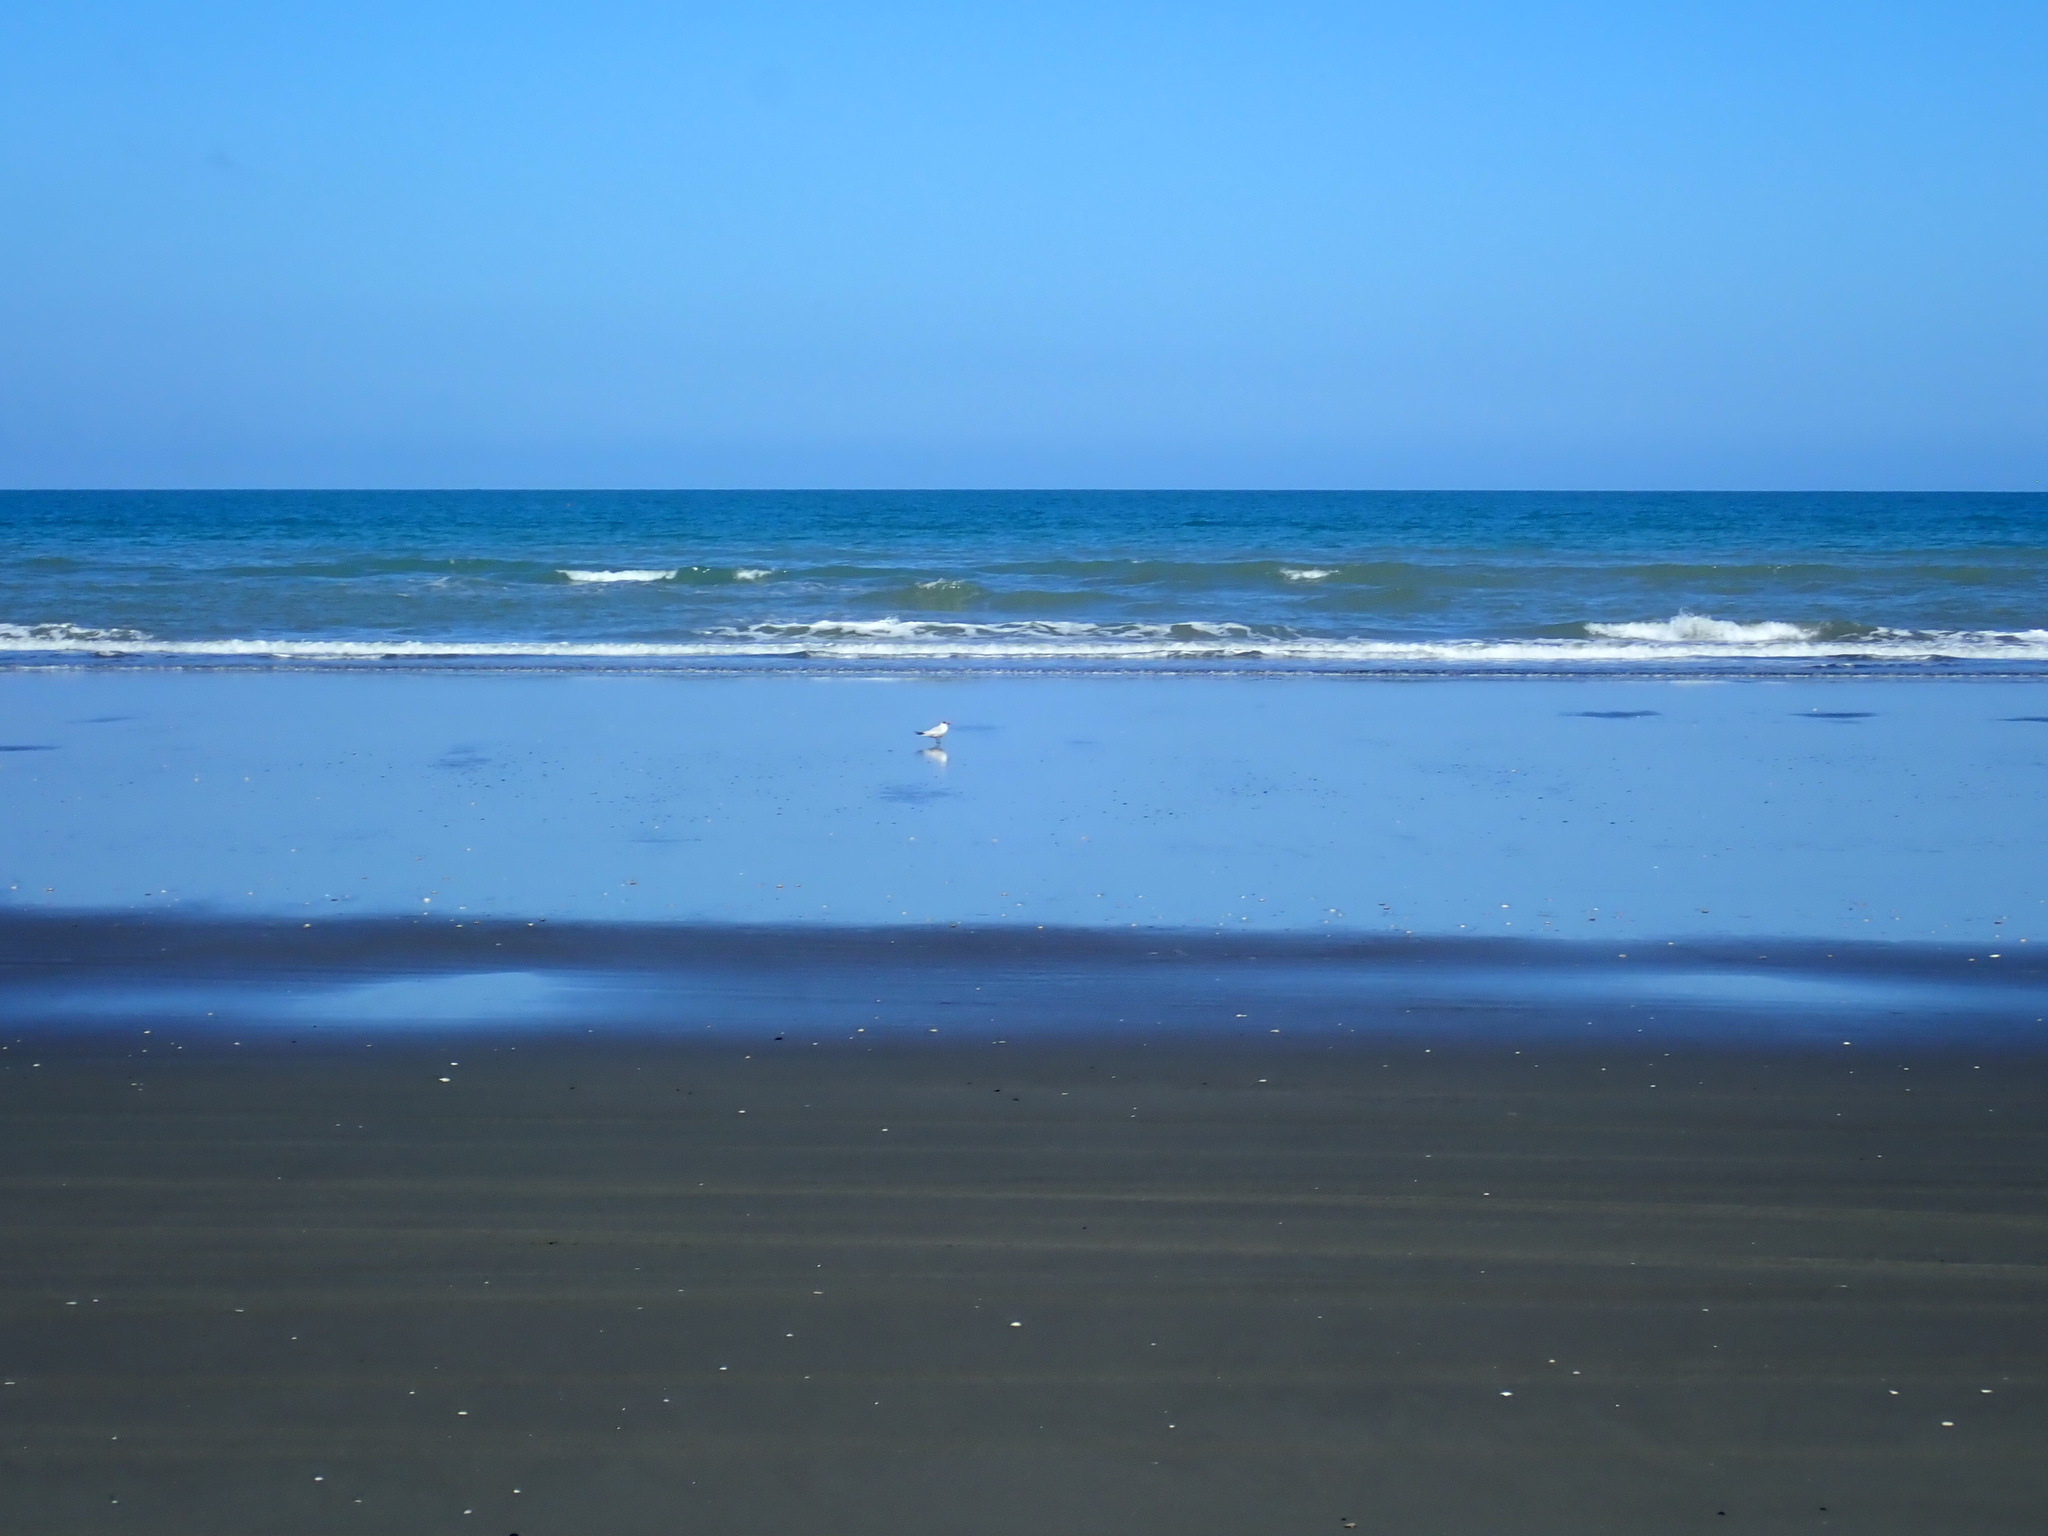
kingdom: Animalia
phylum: Chordata
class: Aves
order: Charadriiformes
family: Laridae
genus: Hydroprogne
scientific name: Hydroprogne caspia
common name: Caspian tern
